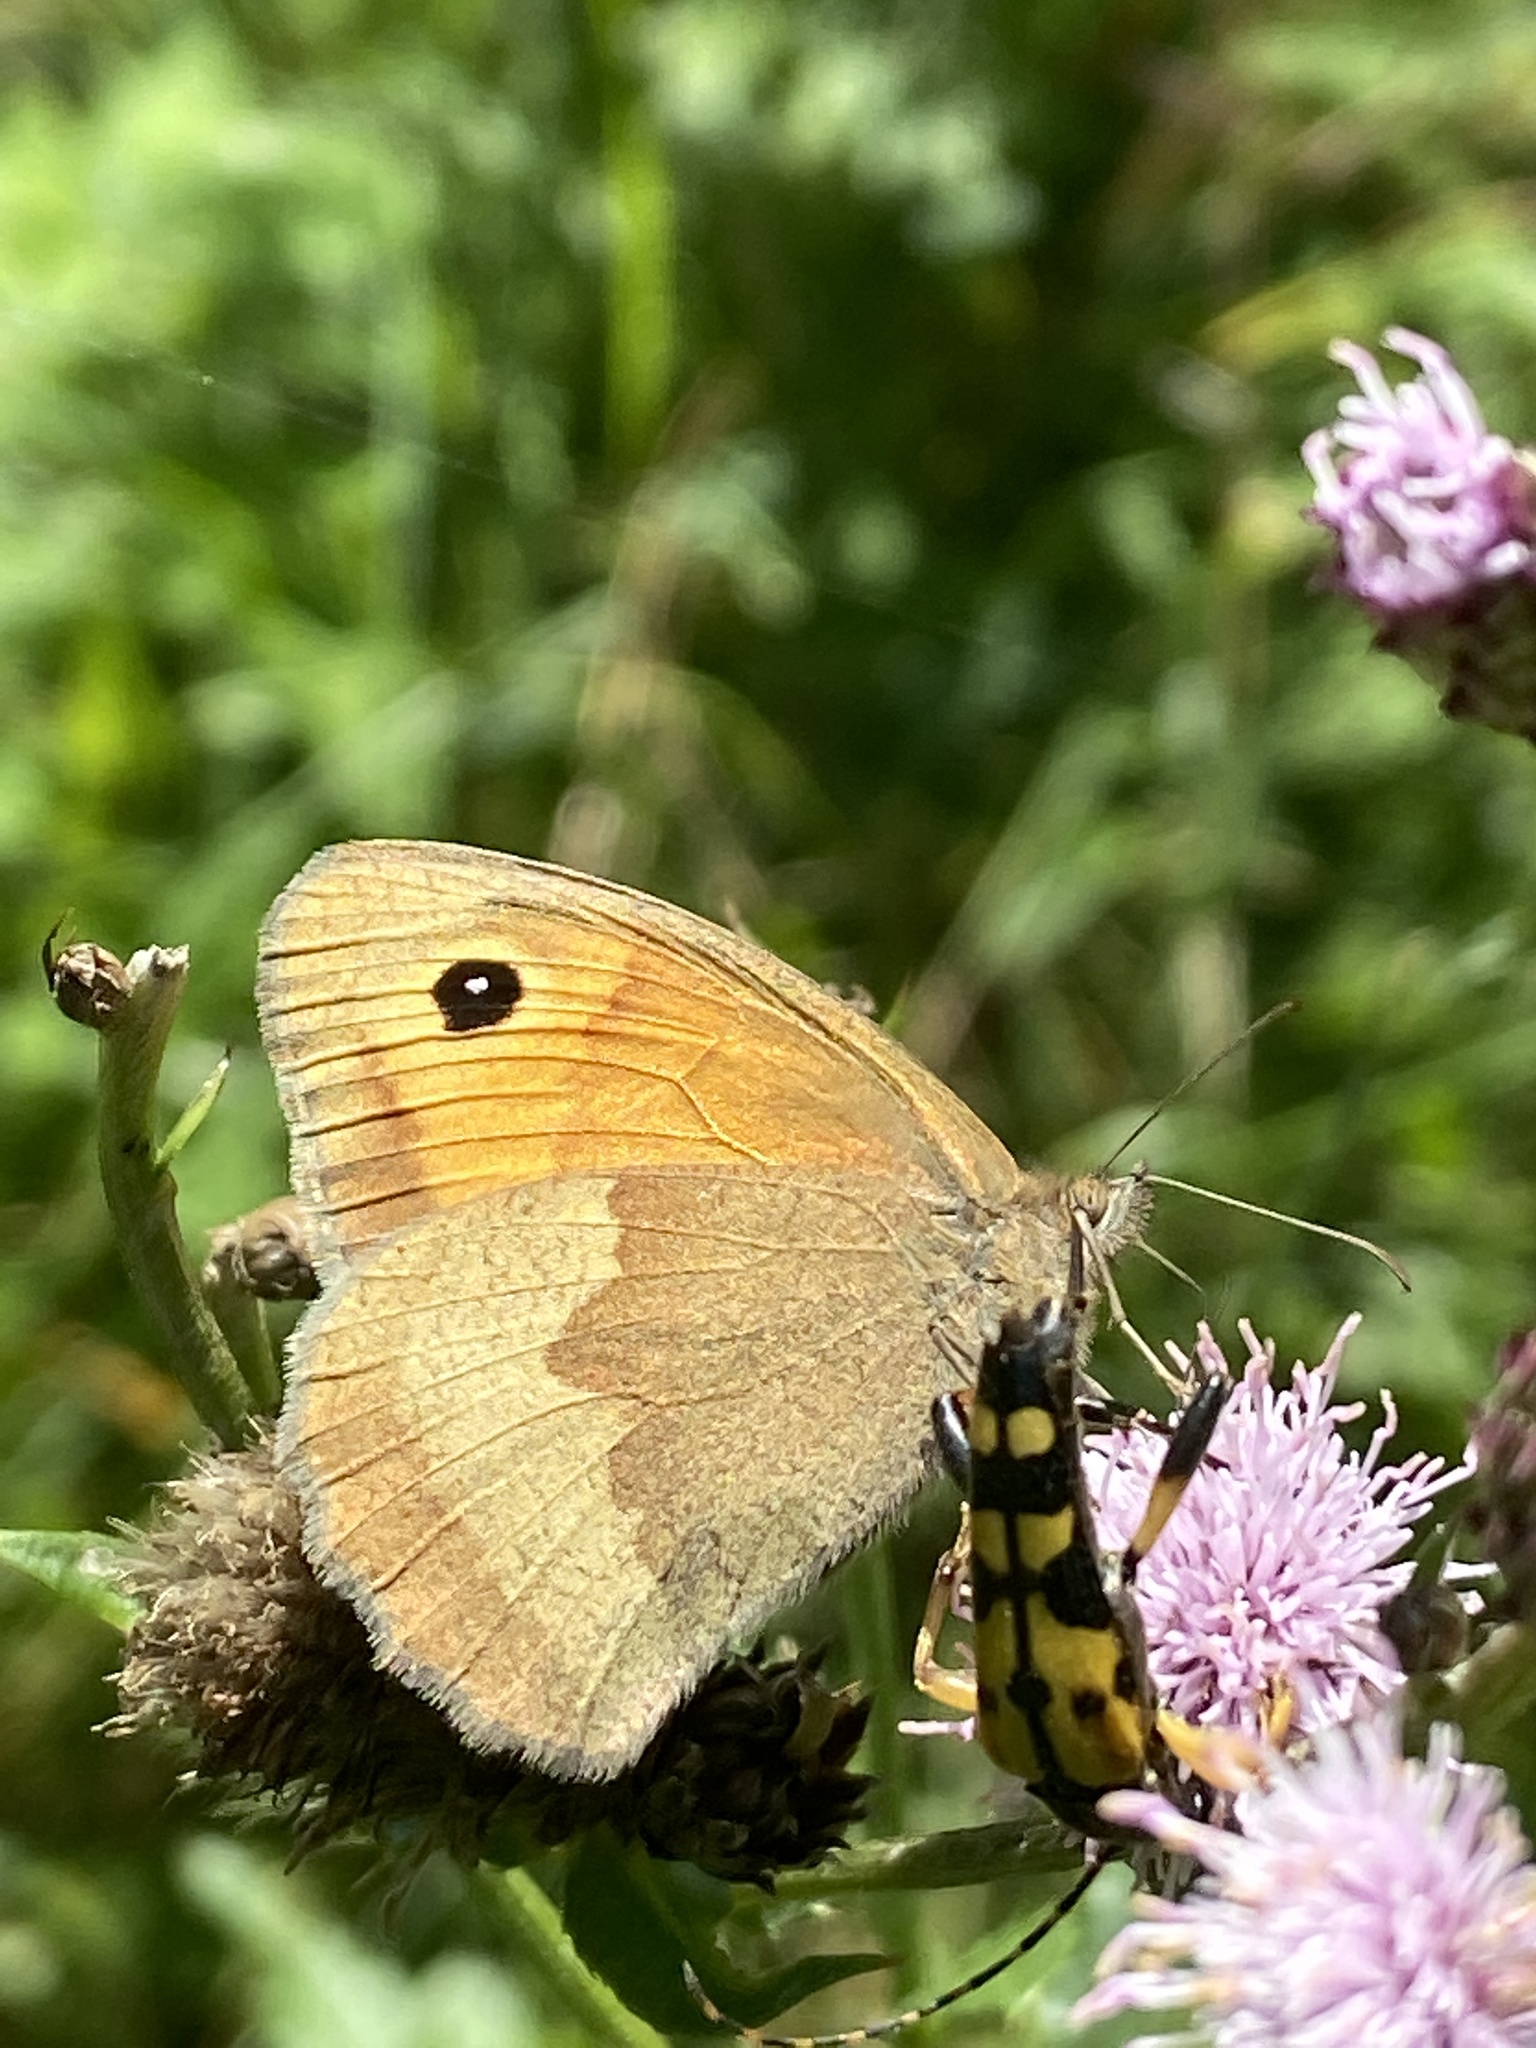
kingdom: Animalia
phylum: Arthropoda
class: Insecta
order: Lepidoptera
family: Nymphalidae
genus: Maniola
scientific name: Maniola jurtina
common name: Meadow brown
